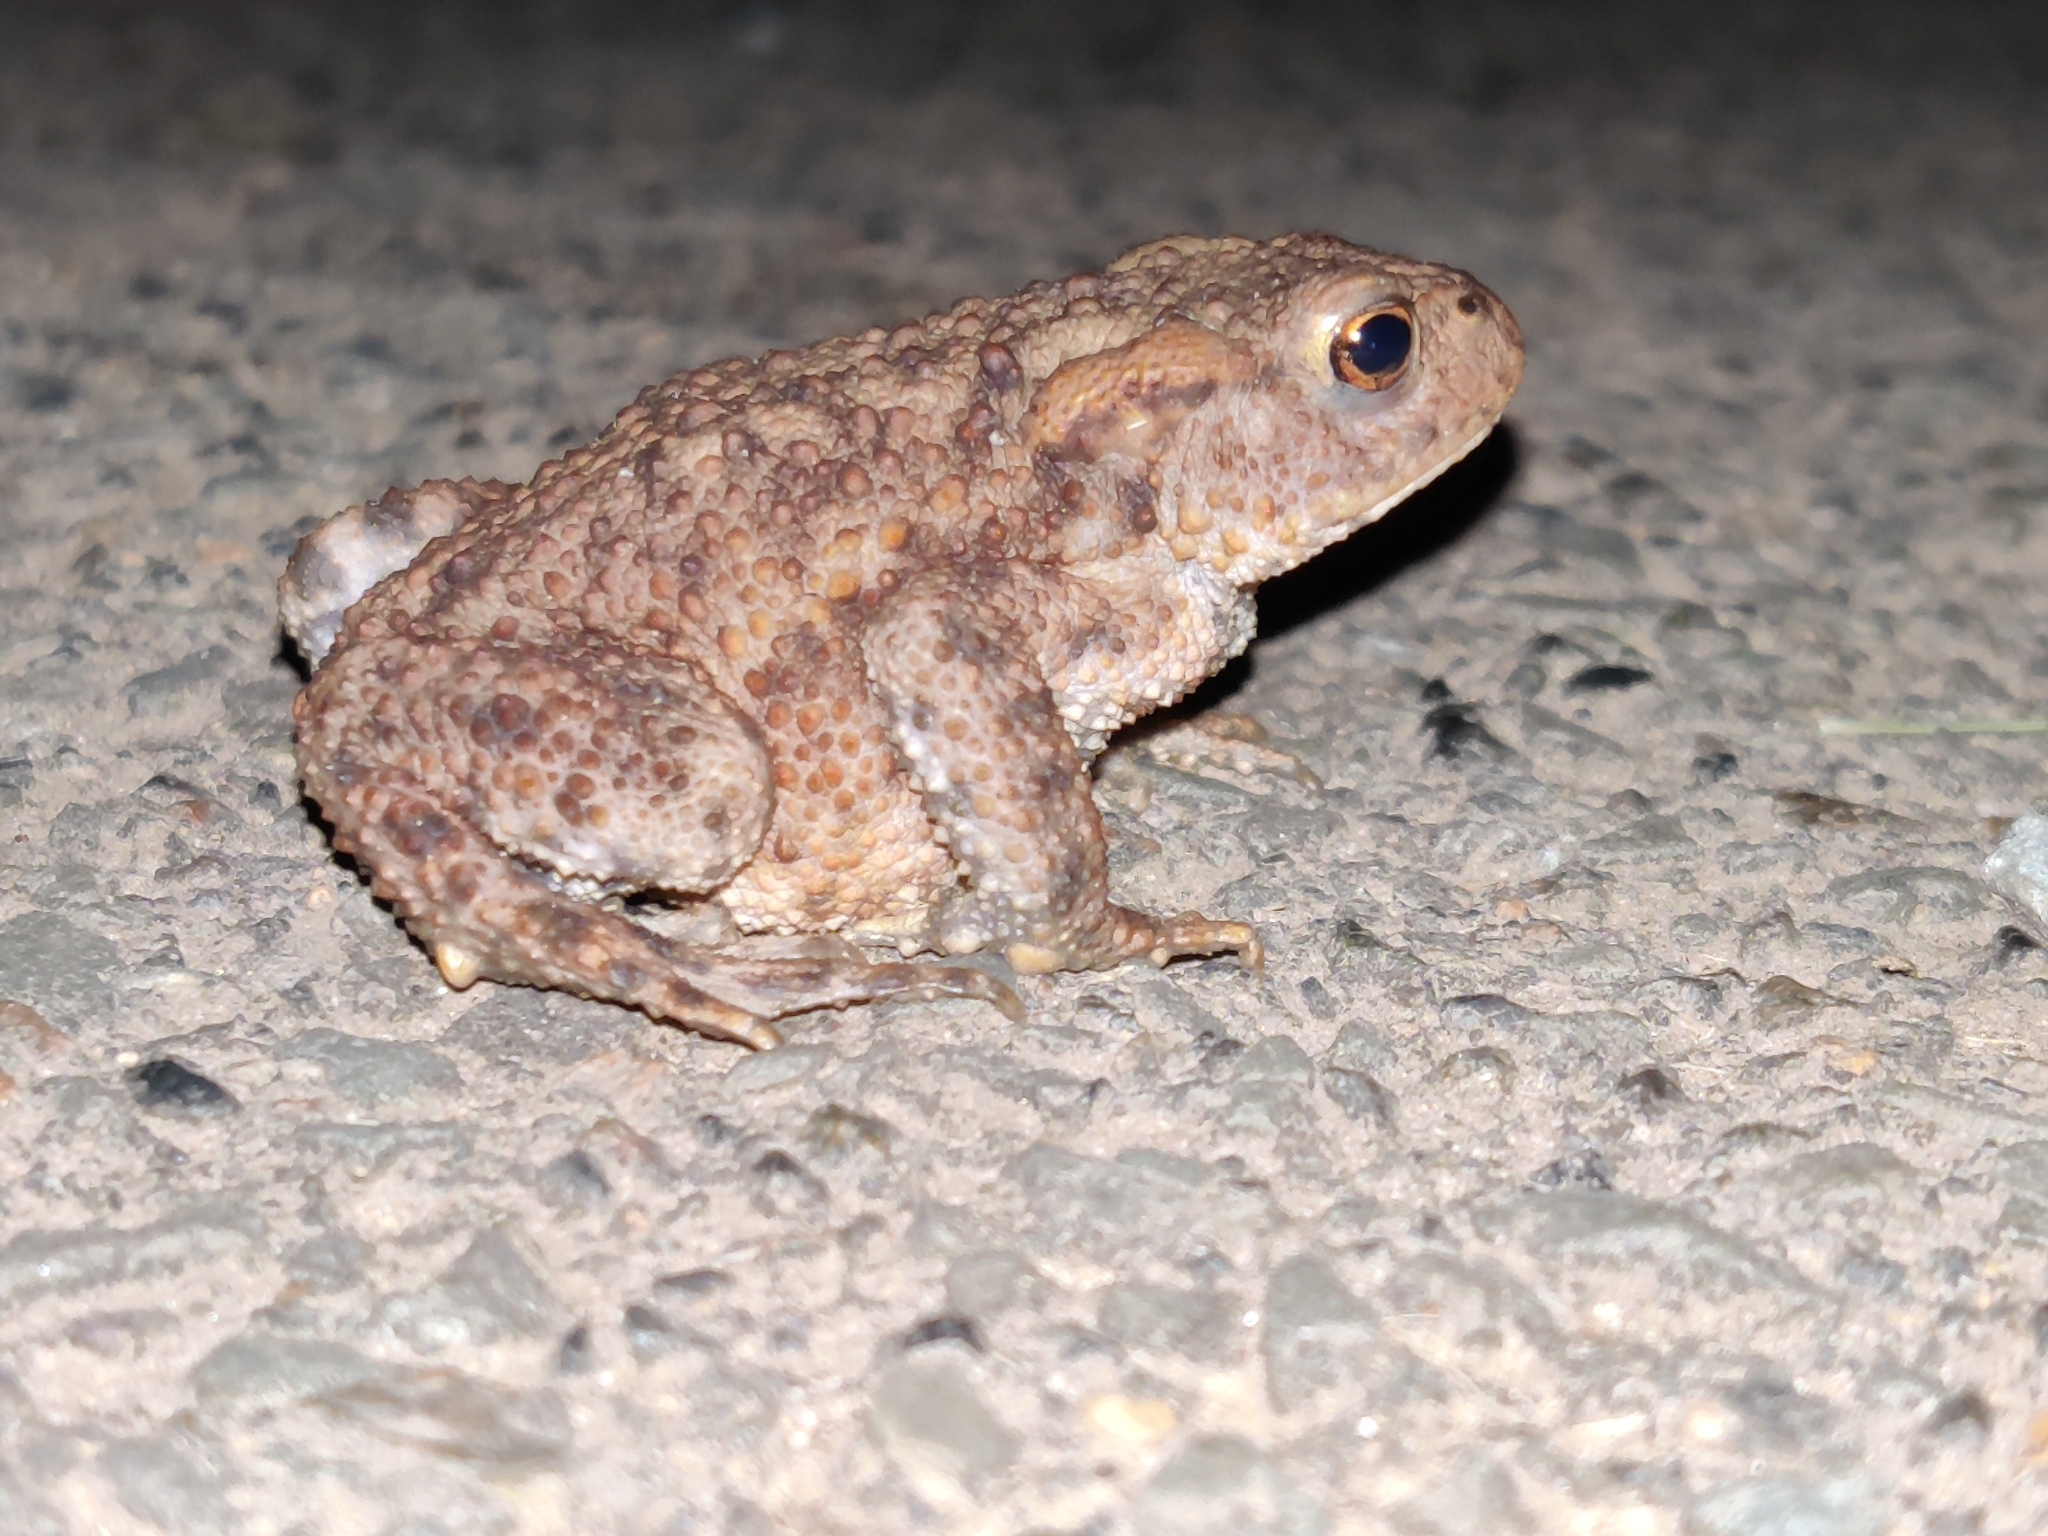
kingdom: Animalia
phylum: Chordata
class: Amphibia
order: Anura
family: Bufonidae
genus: Bufo
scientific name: Bufo bufo
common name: Common toad
